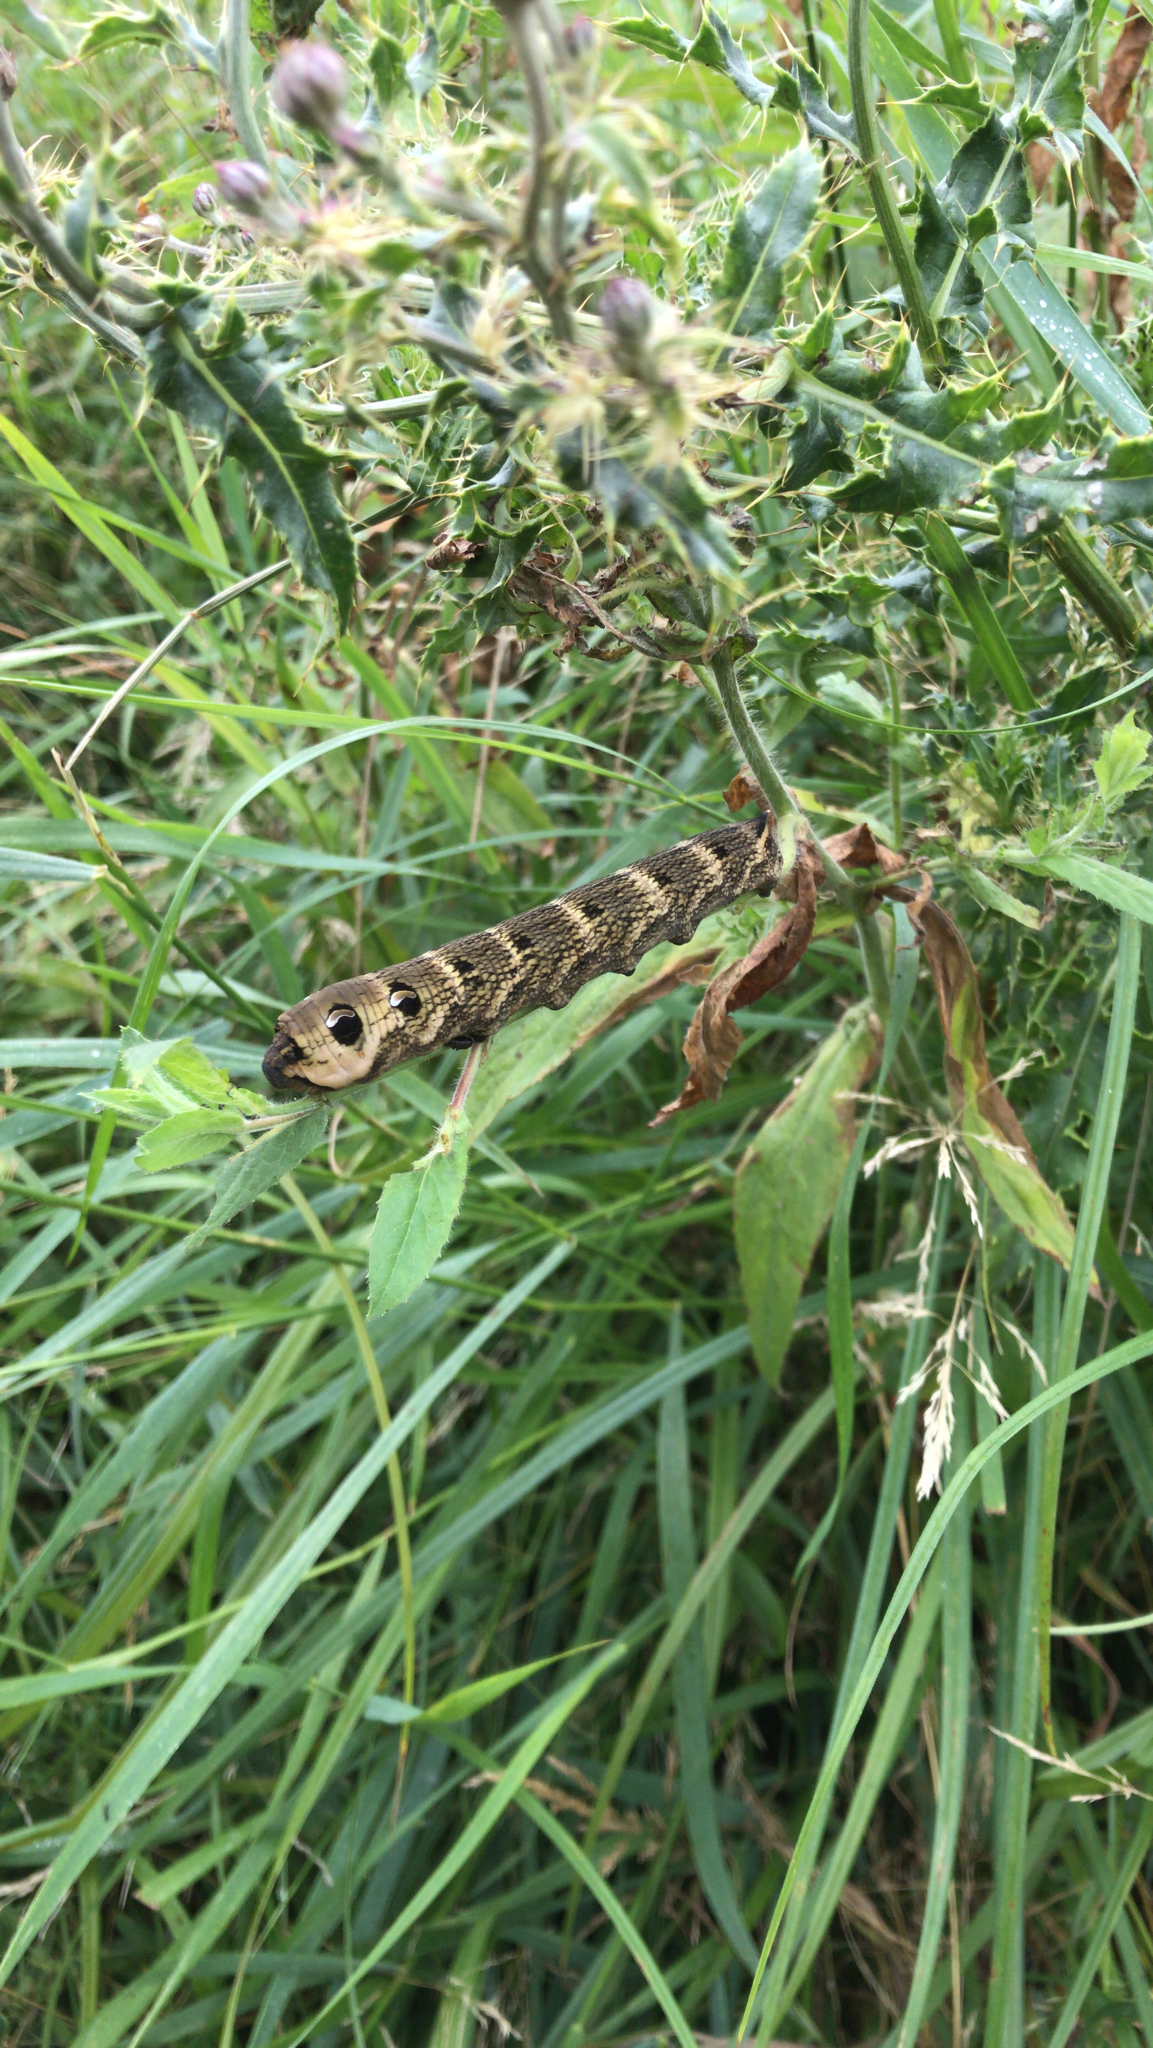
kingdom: Animalia
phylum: Arthropoda
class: Insecta
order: Lepidoptera
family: Sphingidae
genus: Deilephila
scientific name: Deilephila elpenor
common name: Elephant hawk-moth
